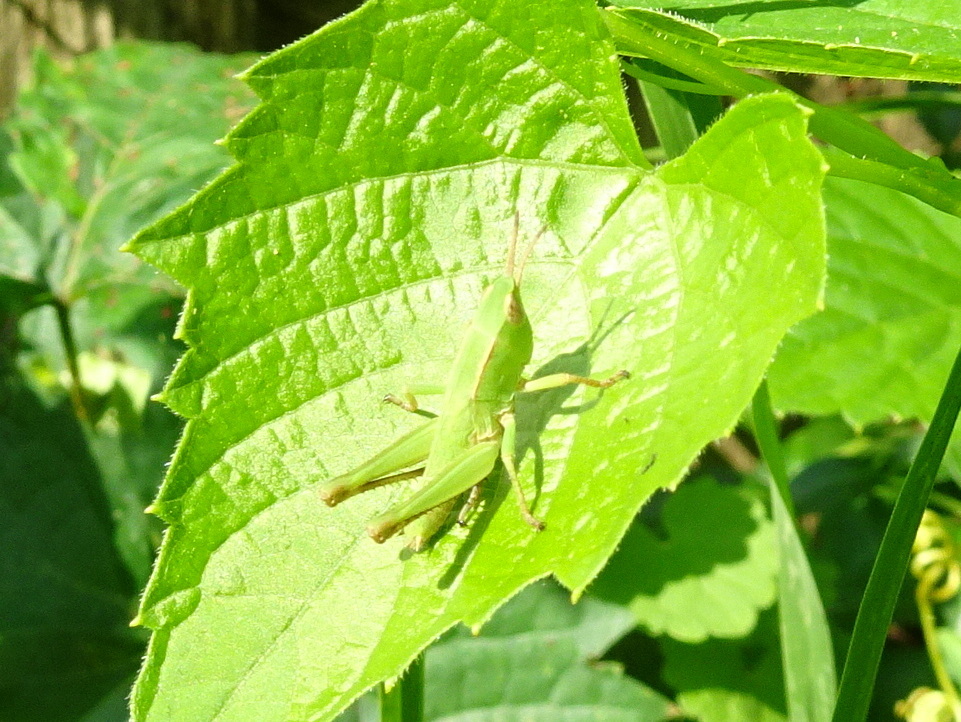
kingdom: Animalia
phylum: Arthropoda
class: Insecta
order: Orthoptera
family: Acrididae
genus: Dichromorpha
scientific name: Dichromorpha viridis
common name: Short-winged green grasshopper
